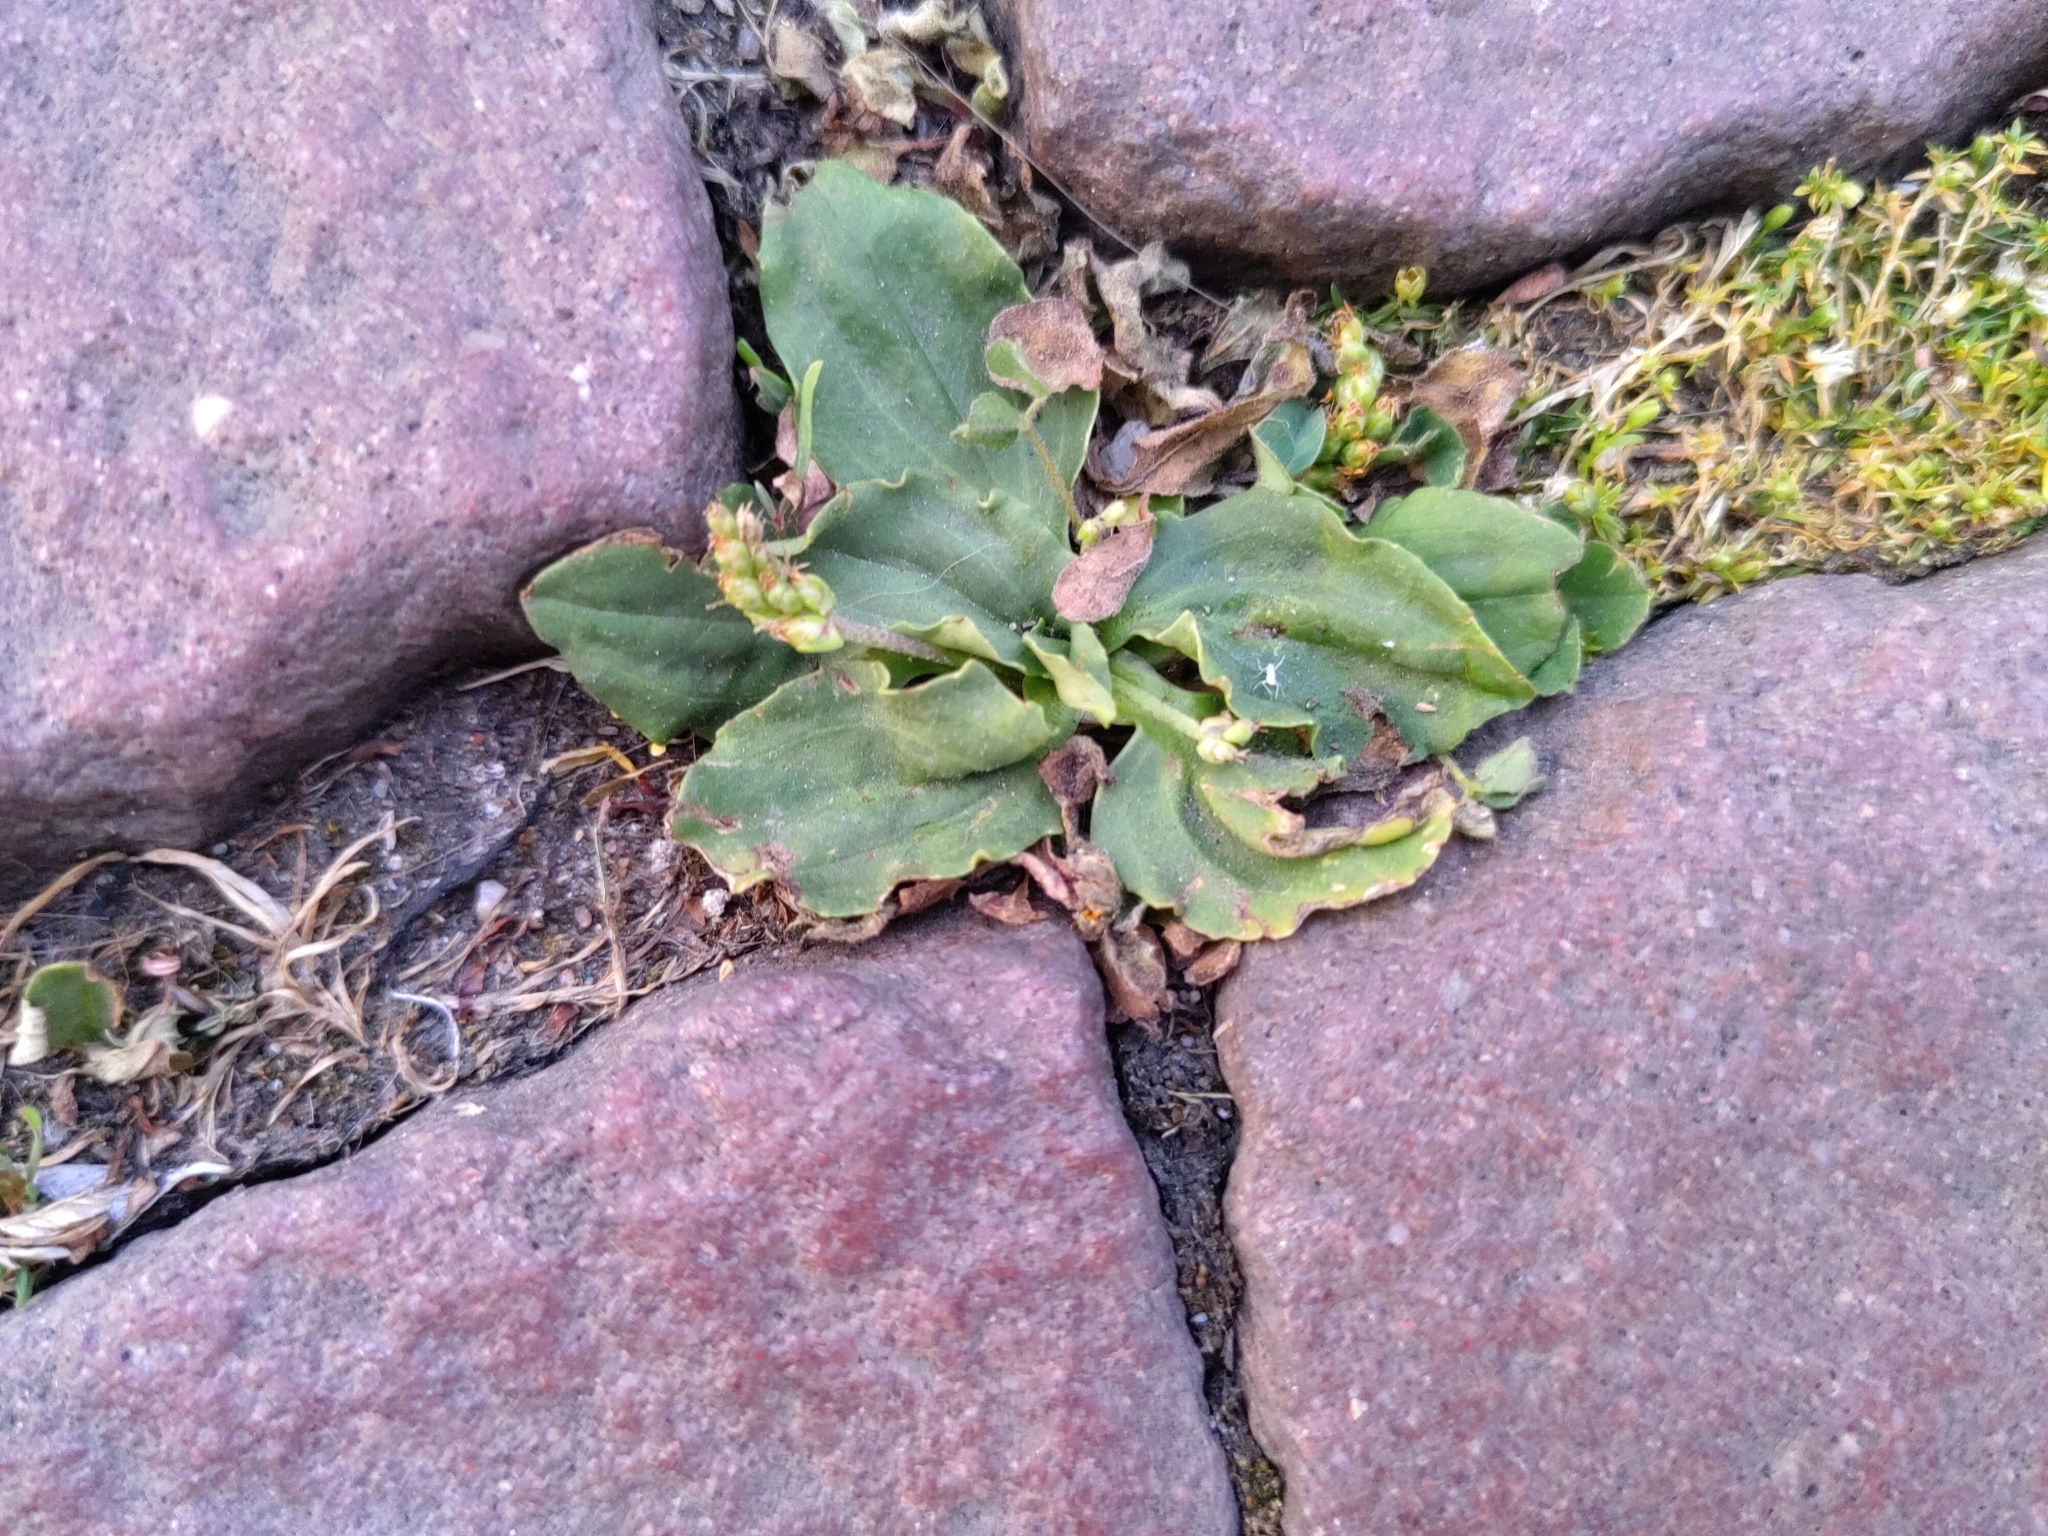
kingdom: Plantae
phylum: Tracheophyta
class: Magnoliopsida
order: Lamiales
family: Plantaginaceae
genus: Plantago
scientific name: Plantago major
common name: Common plantain
